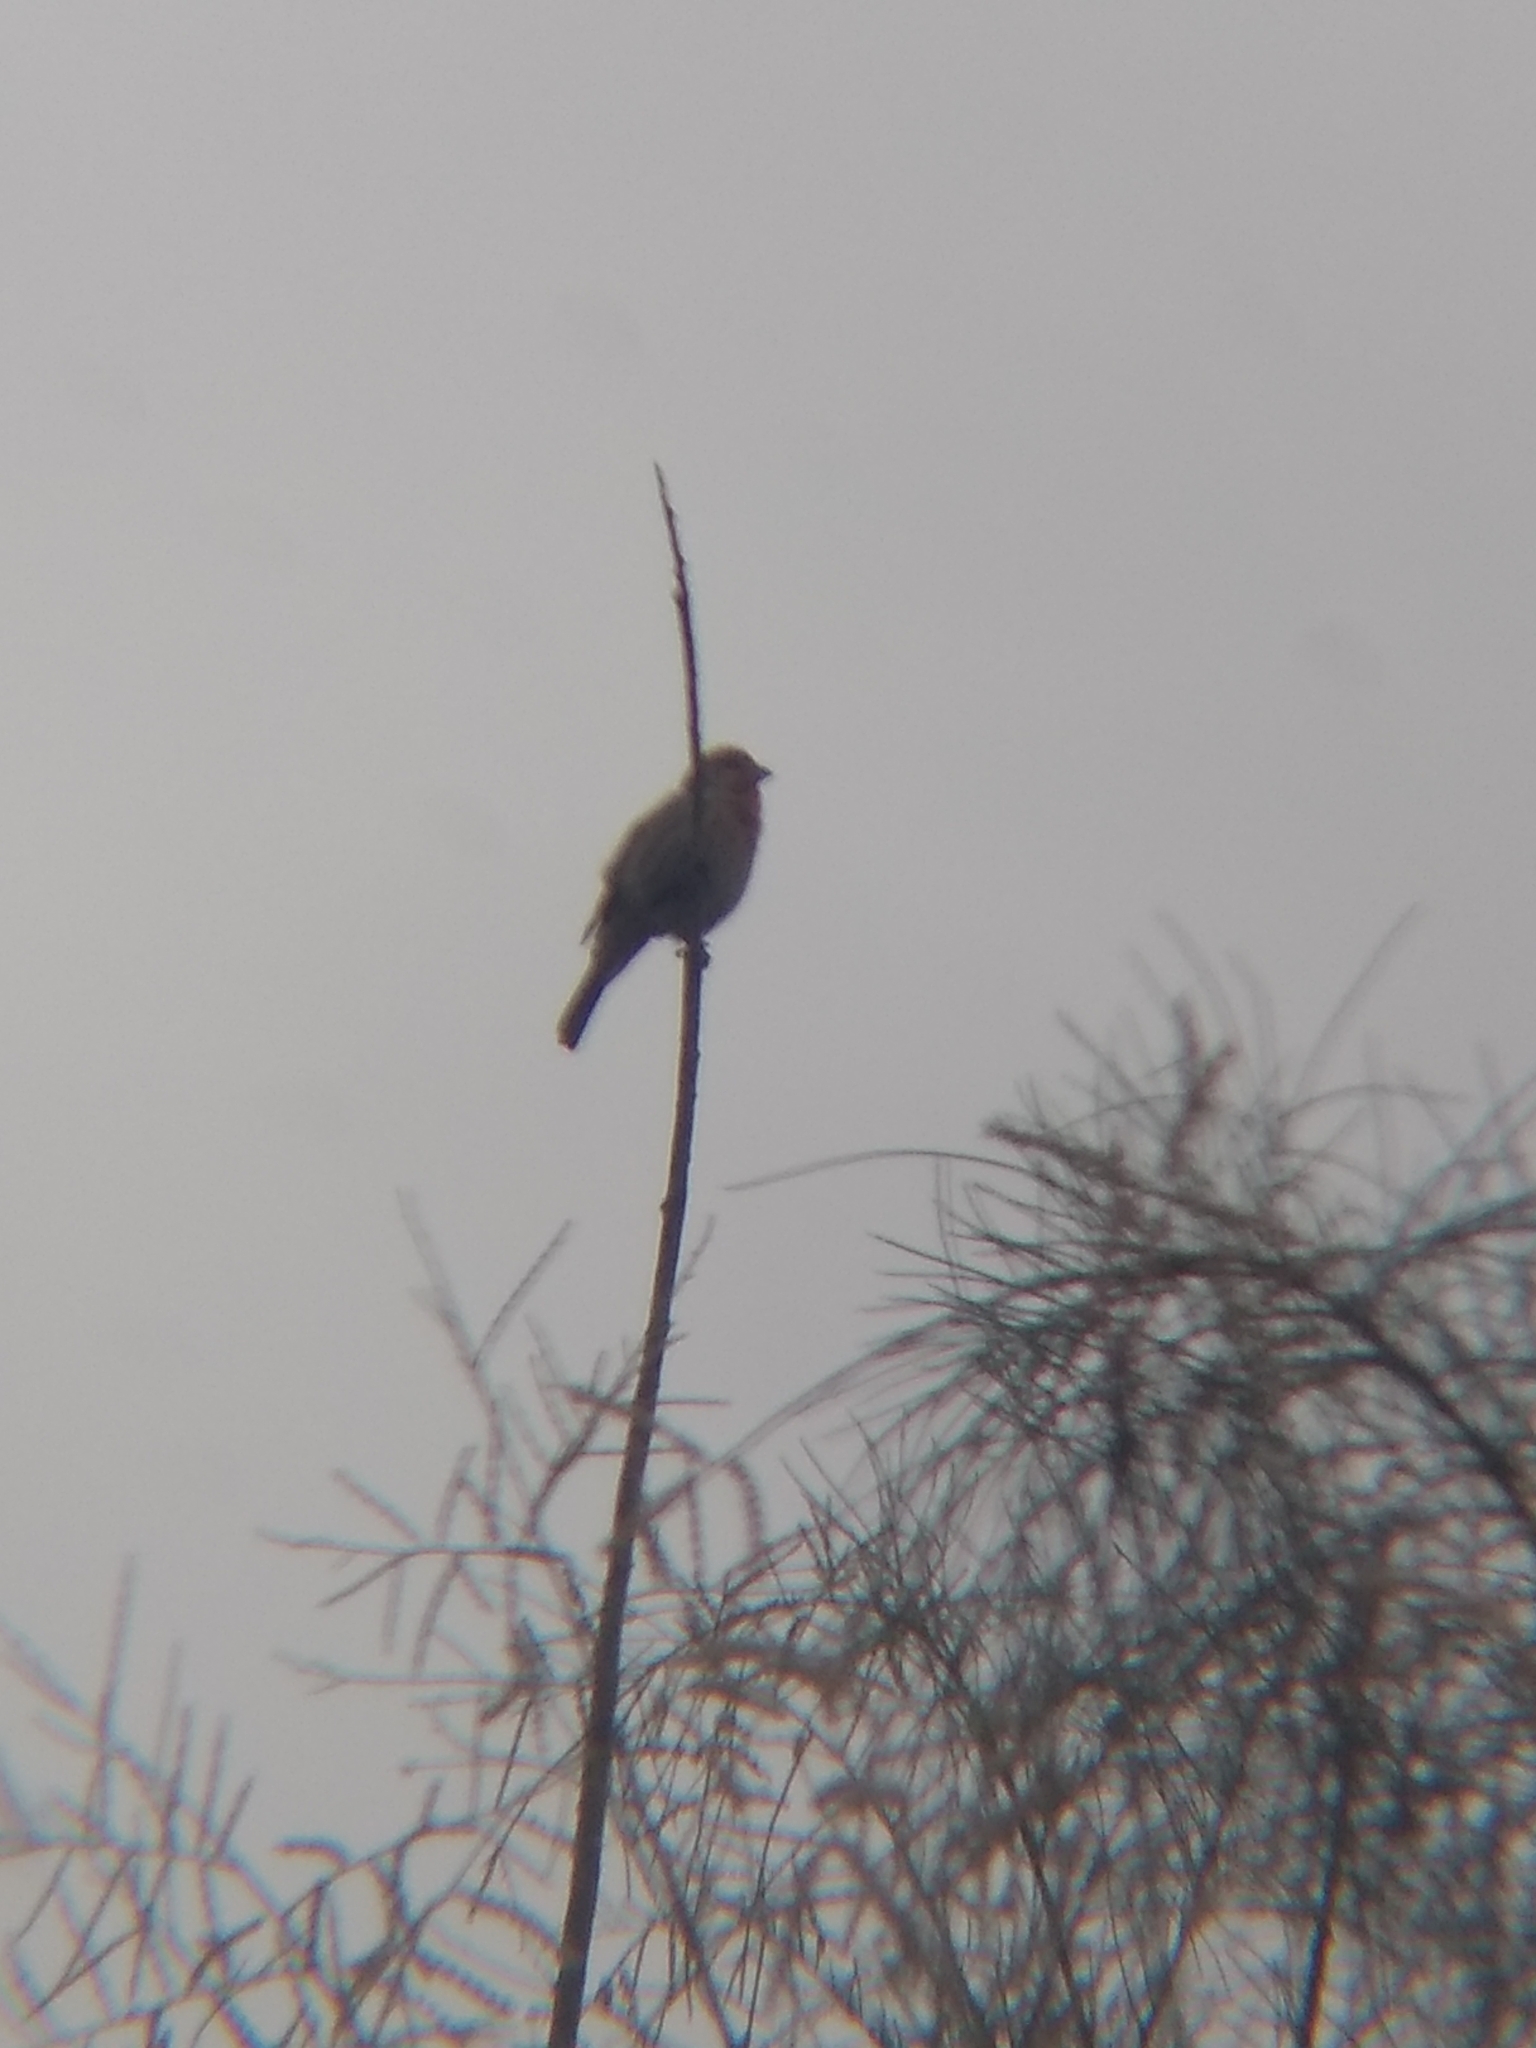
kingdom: Animalia
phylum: Chordata
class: Aves
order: Passeriformes
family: Fringillidae
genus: Haemorhous
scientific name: Haemorhous mexicanus
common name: House finch
